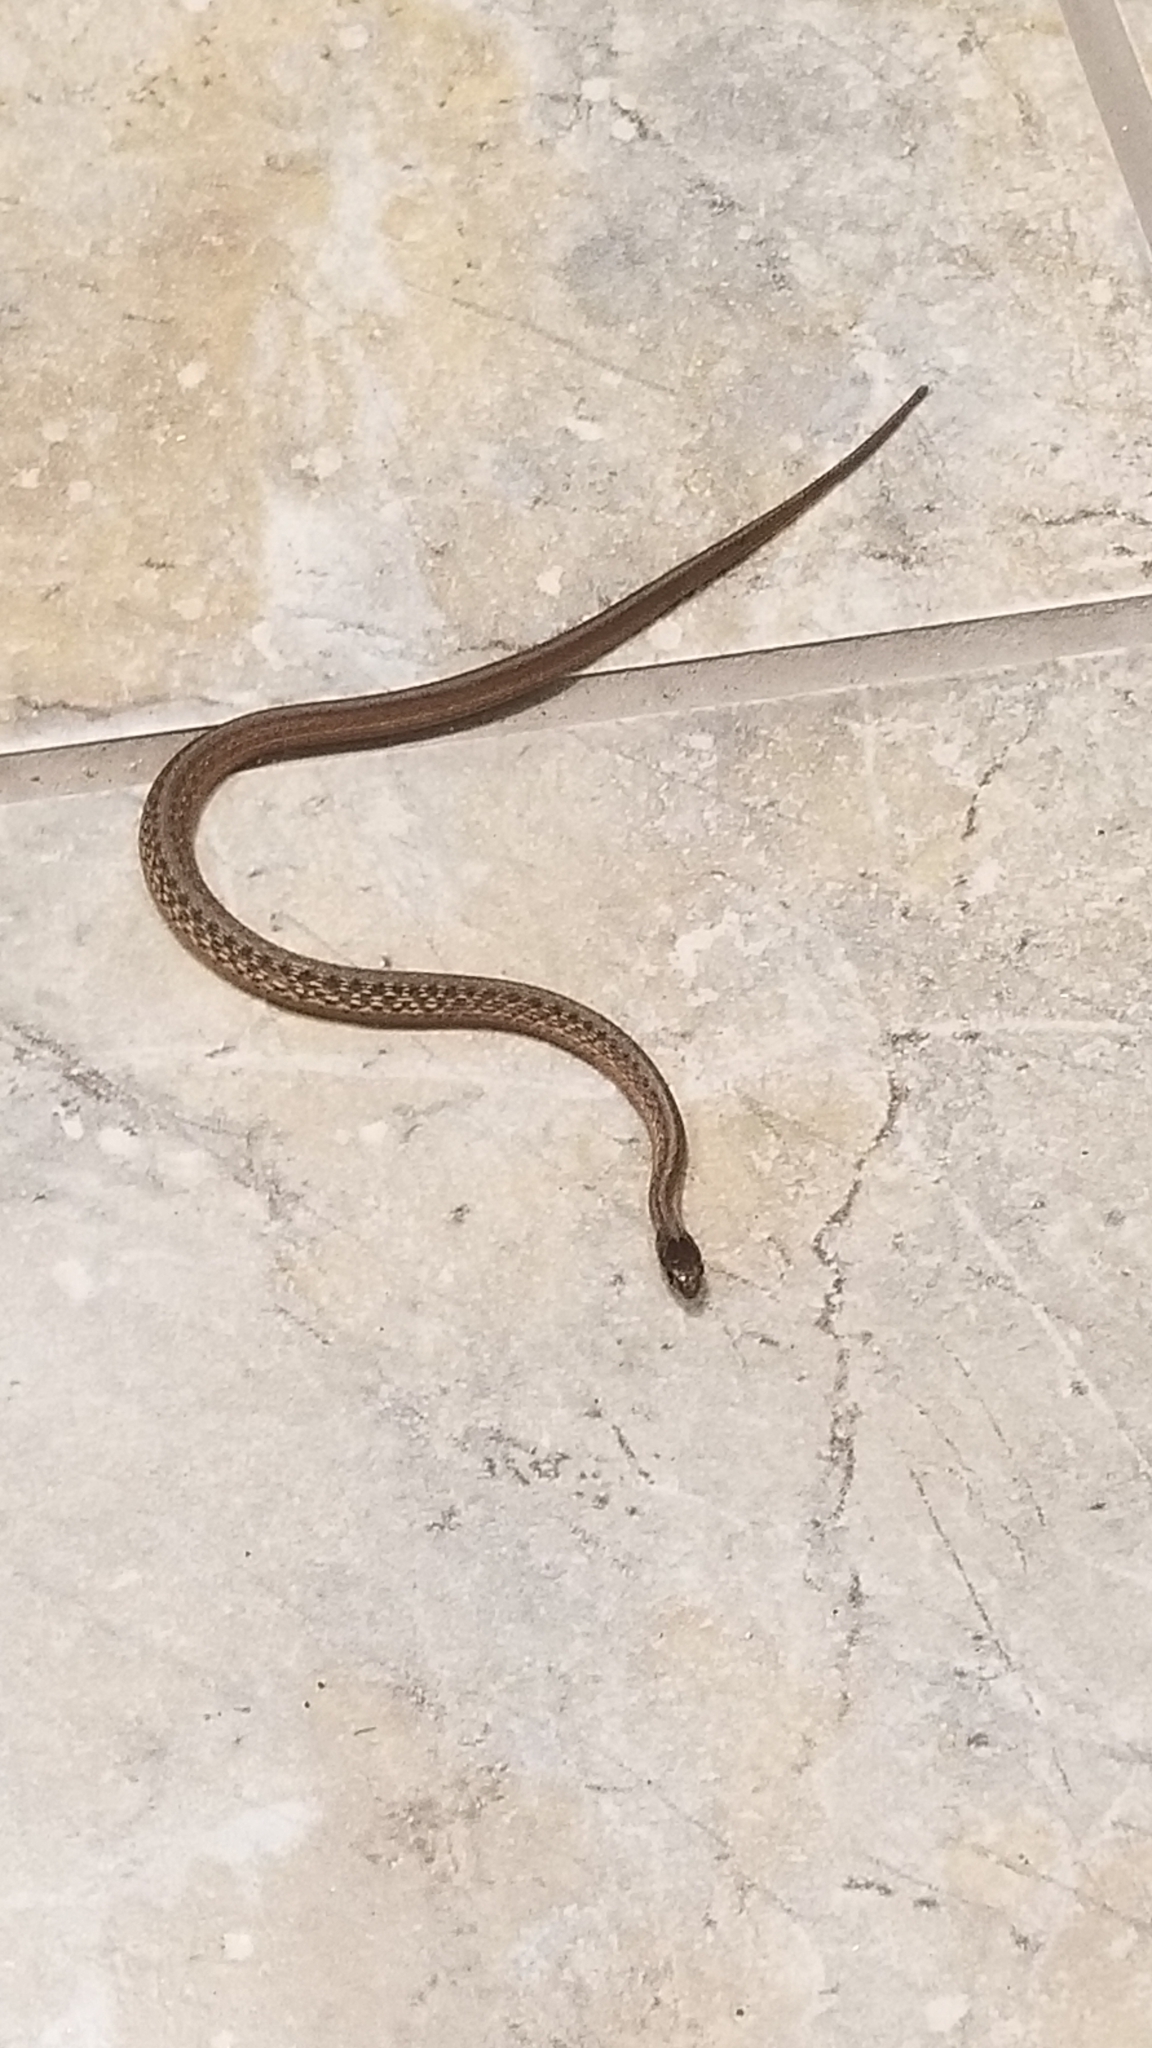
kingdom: Animalia
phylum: Chordata
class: Squamata
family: Colubridae
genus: Storeria
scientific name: Storeria dekayi
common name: (dekay’s) brown snake
